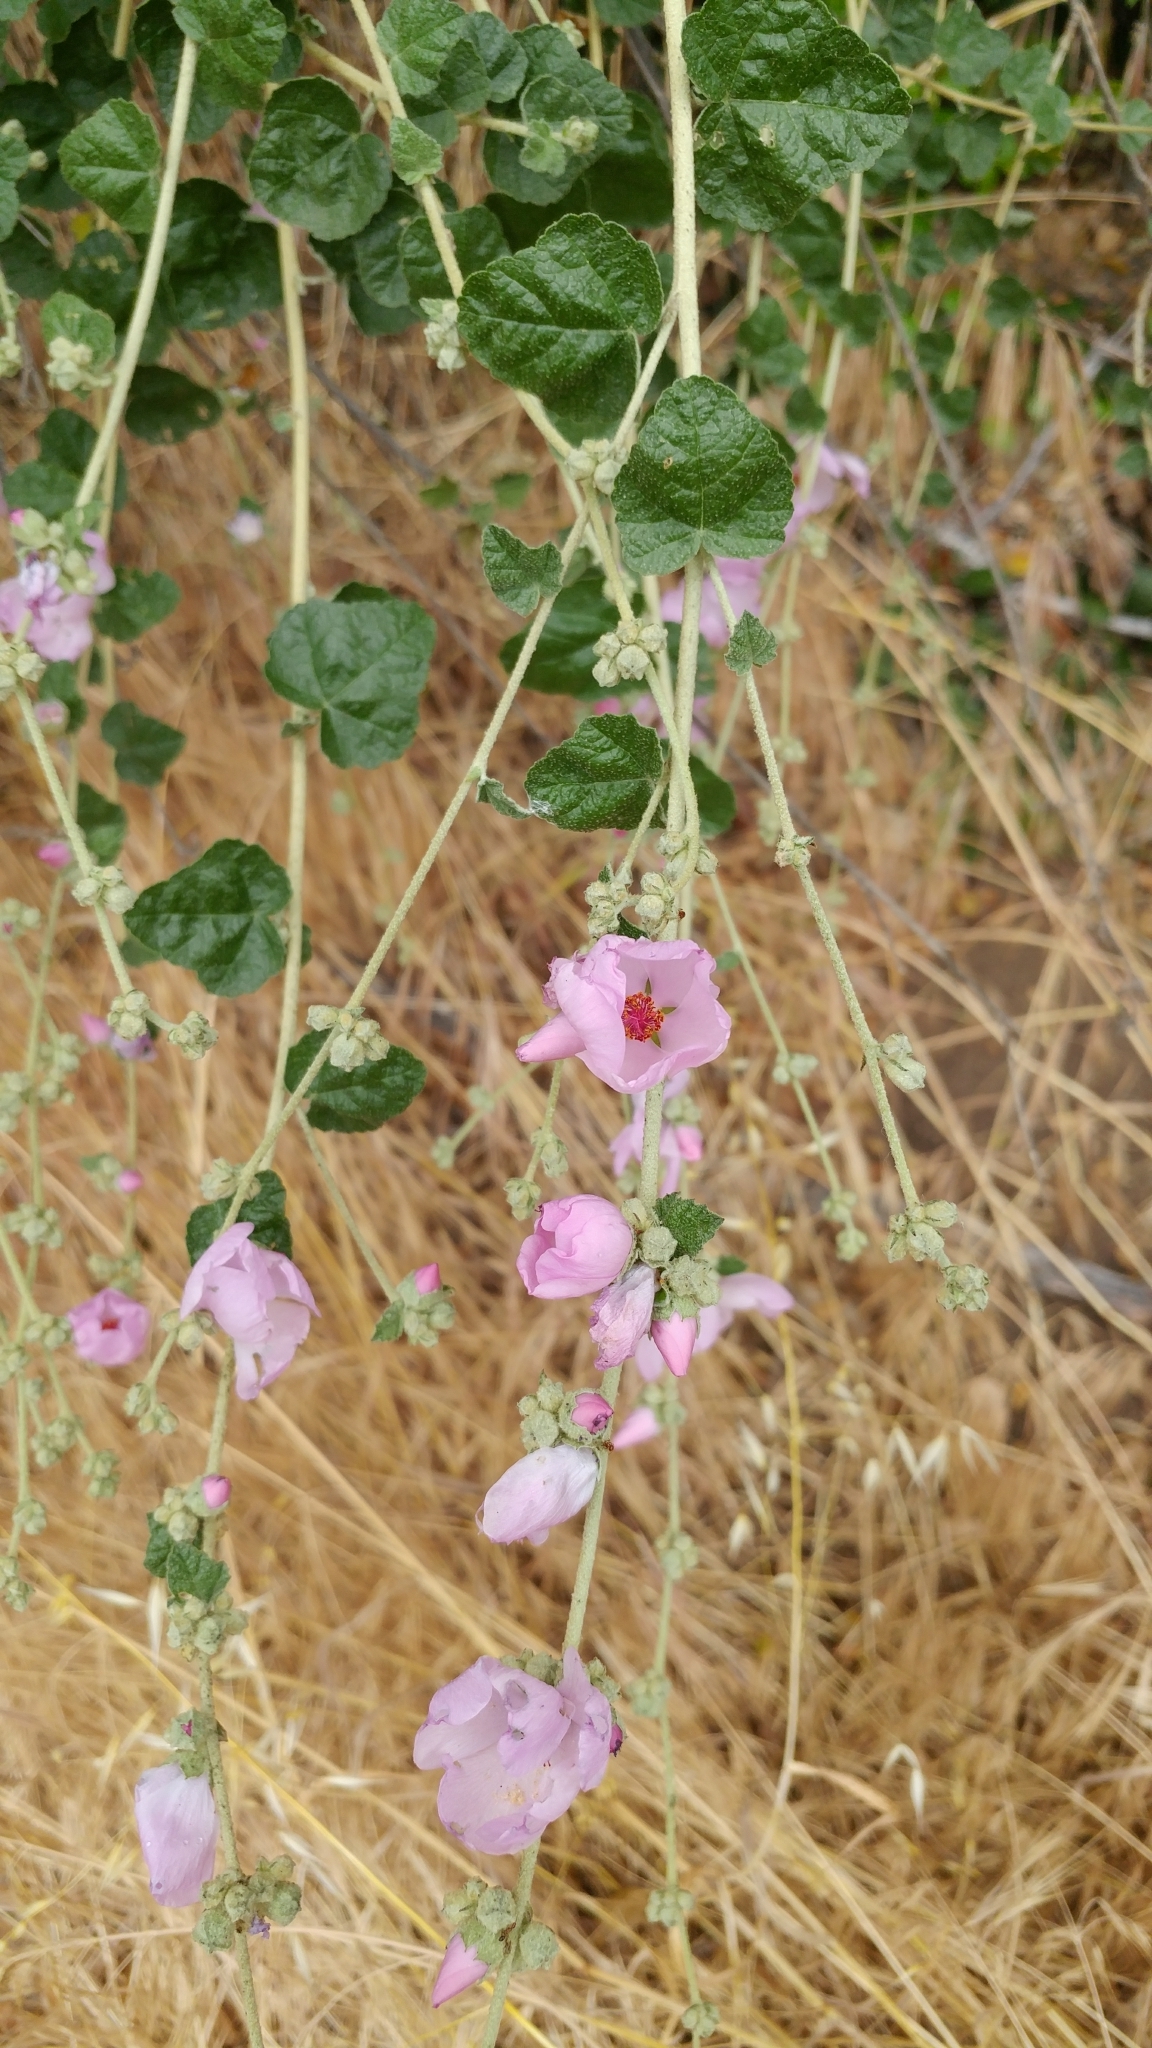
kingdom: Plantae
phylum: Tracheophyta
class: Magnoliopsida
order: Malvales
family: Malvaceae
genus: Malacothamnus
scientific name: Malacothamnus fasciculatus
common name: Sant cruz island bush-mallow
